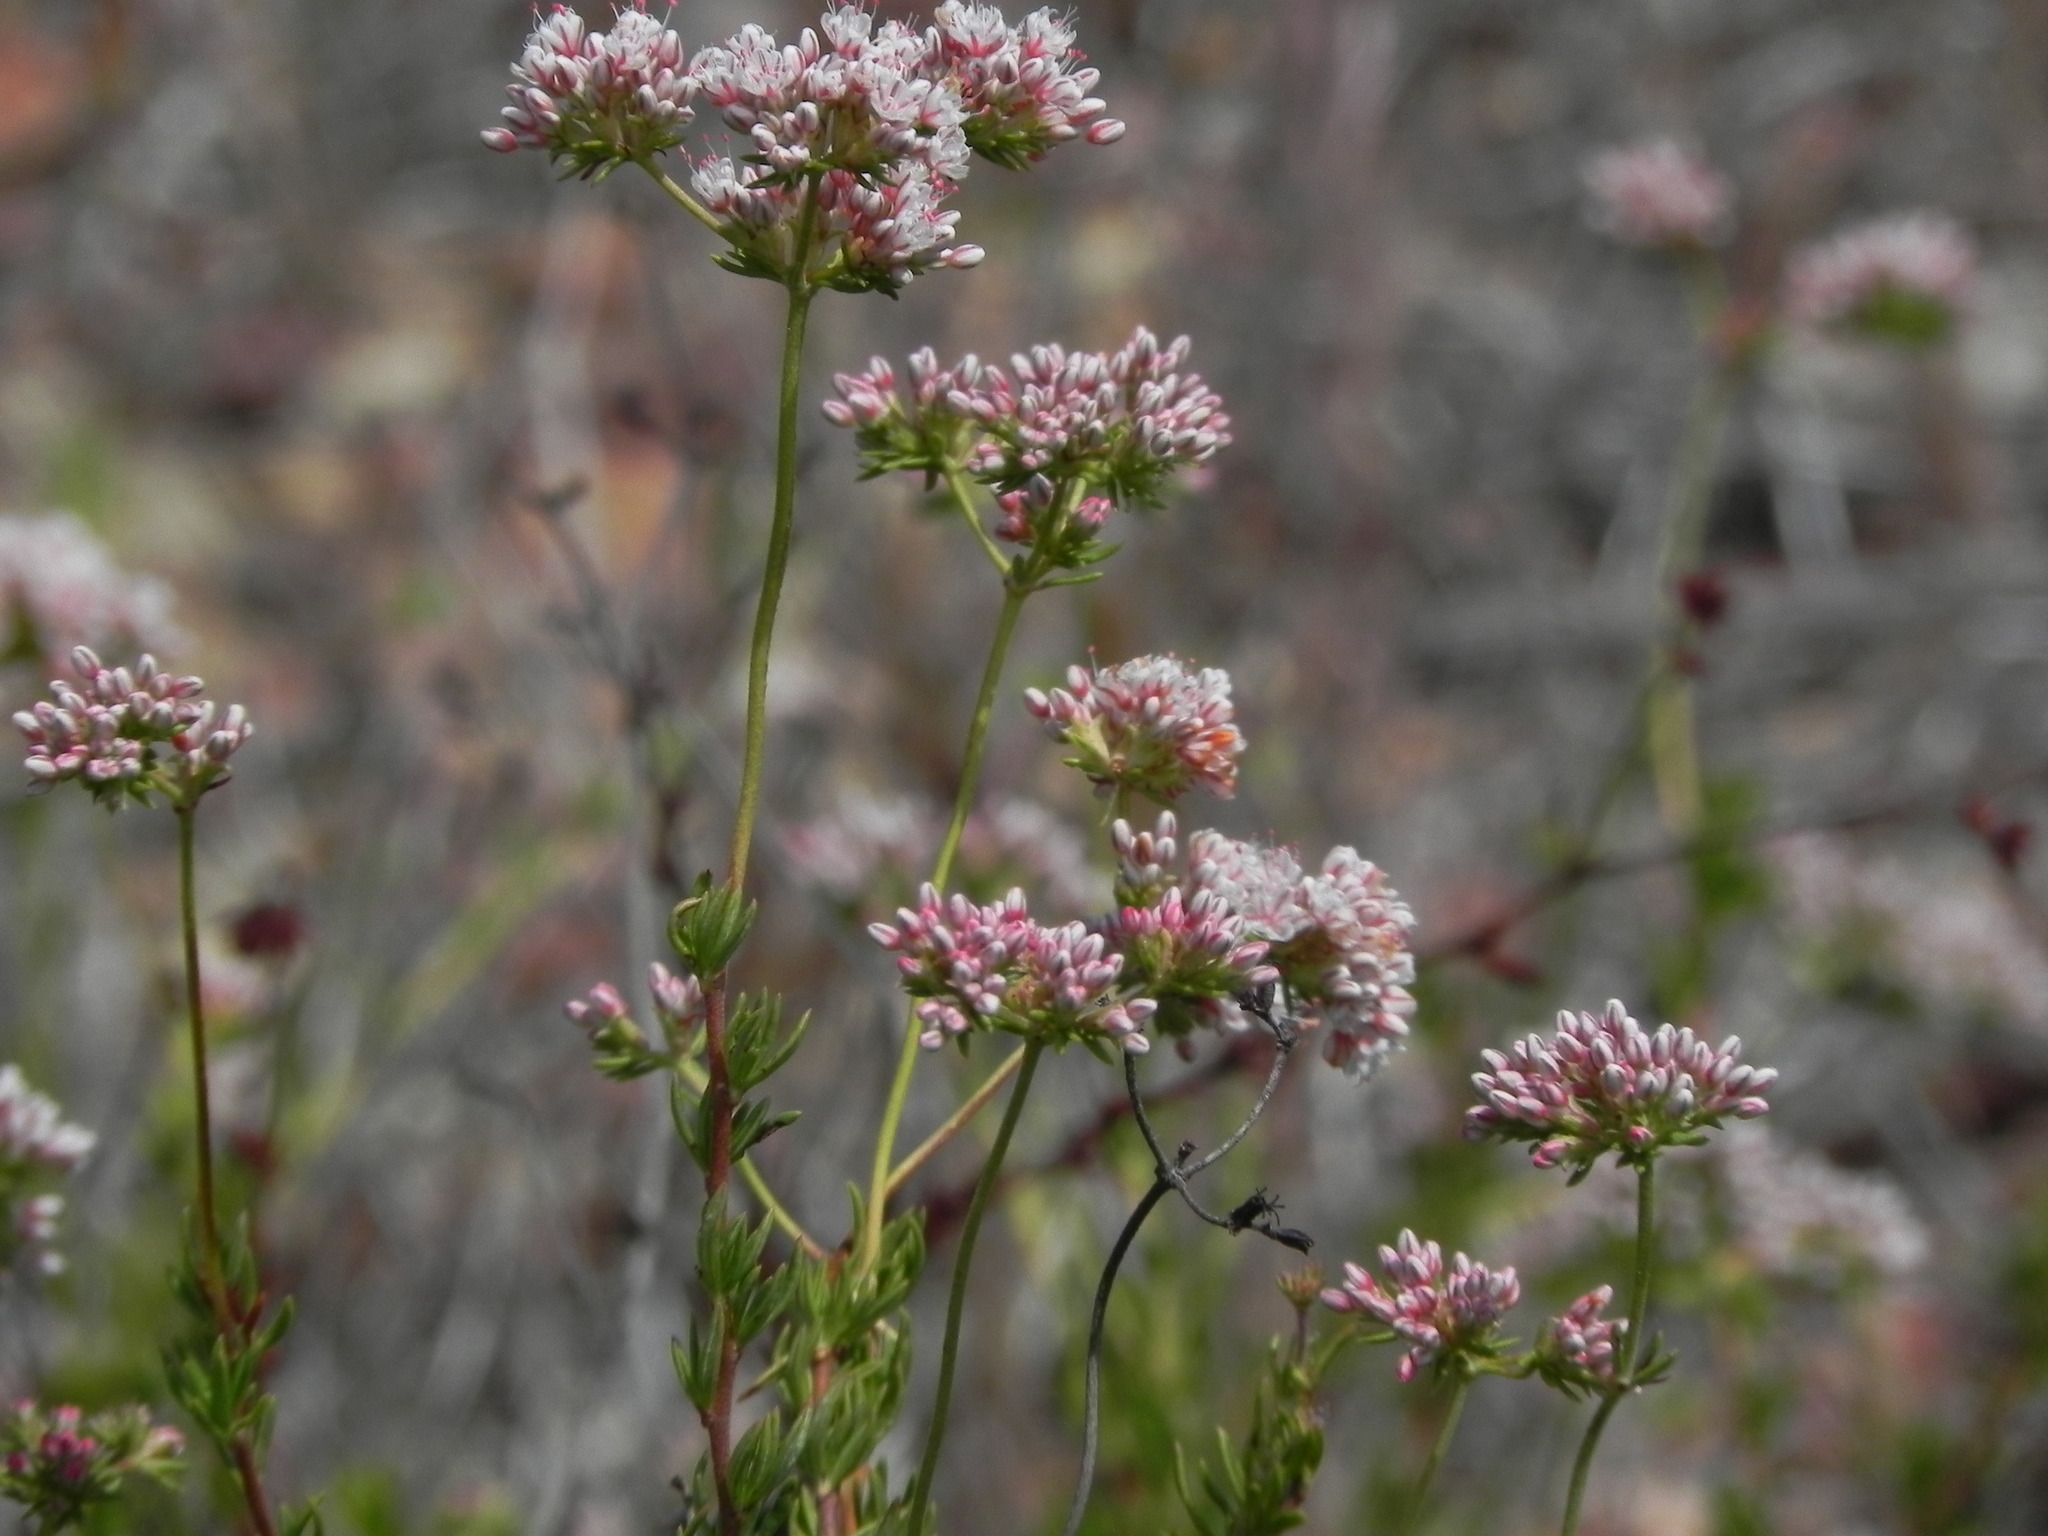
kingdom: Plantae
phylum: Tracheophyta
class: Magnoliopsida
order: Caryophyllales
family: Polygonaceae
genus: Eriogonum
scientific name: Eriogonum fasciculatum
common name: California wild buckwheat
